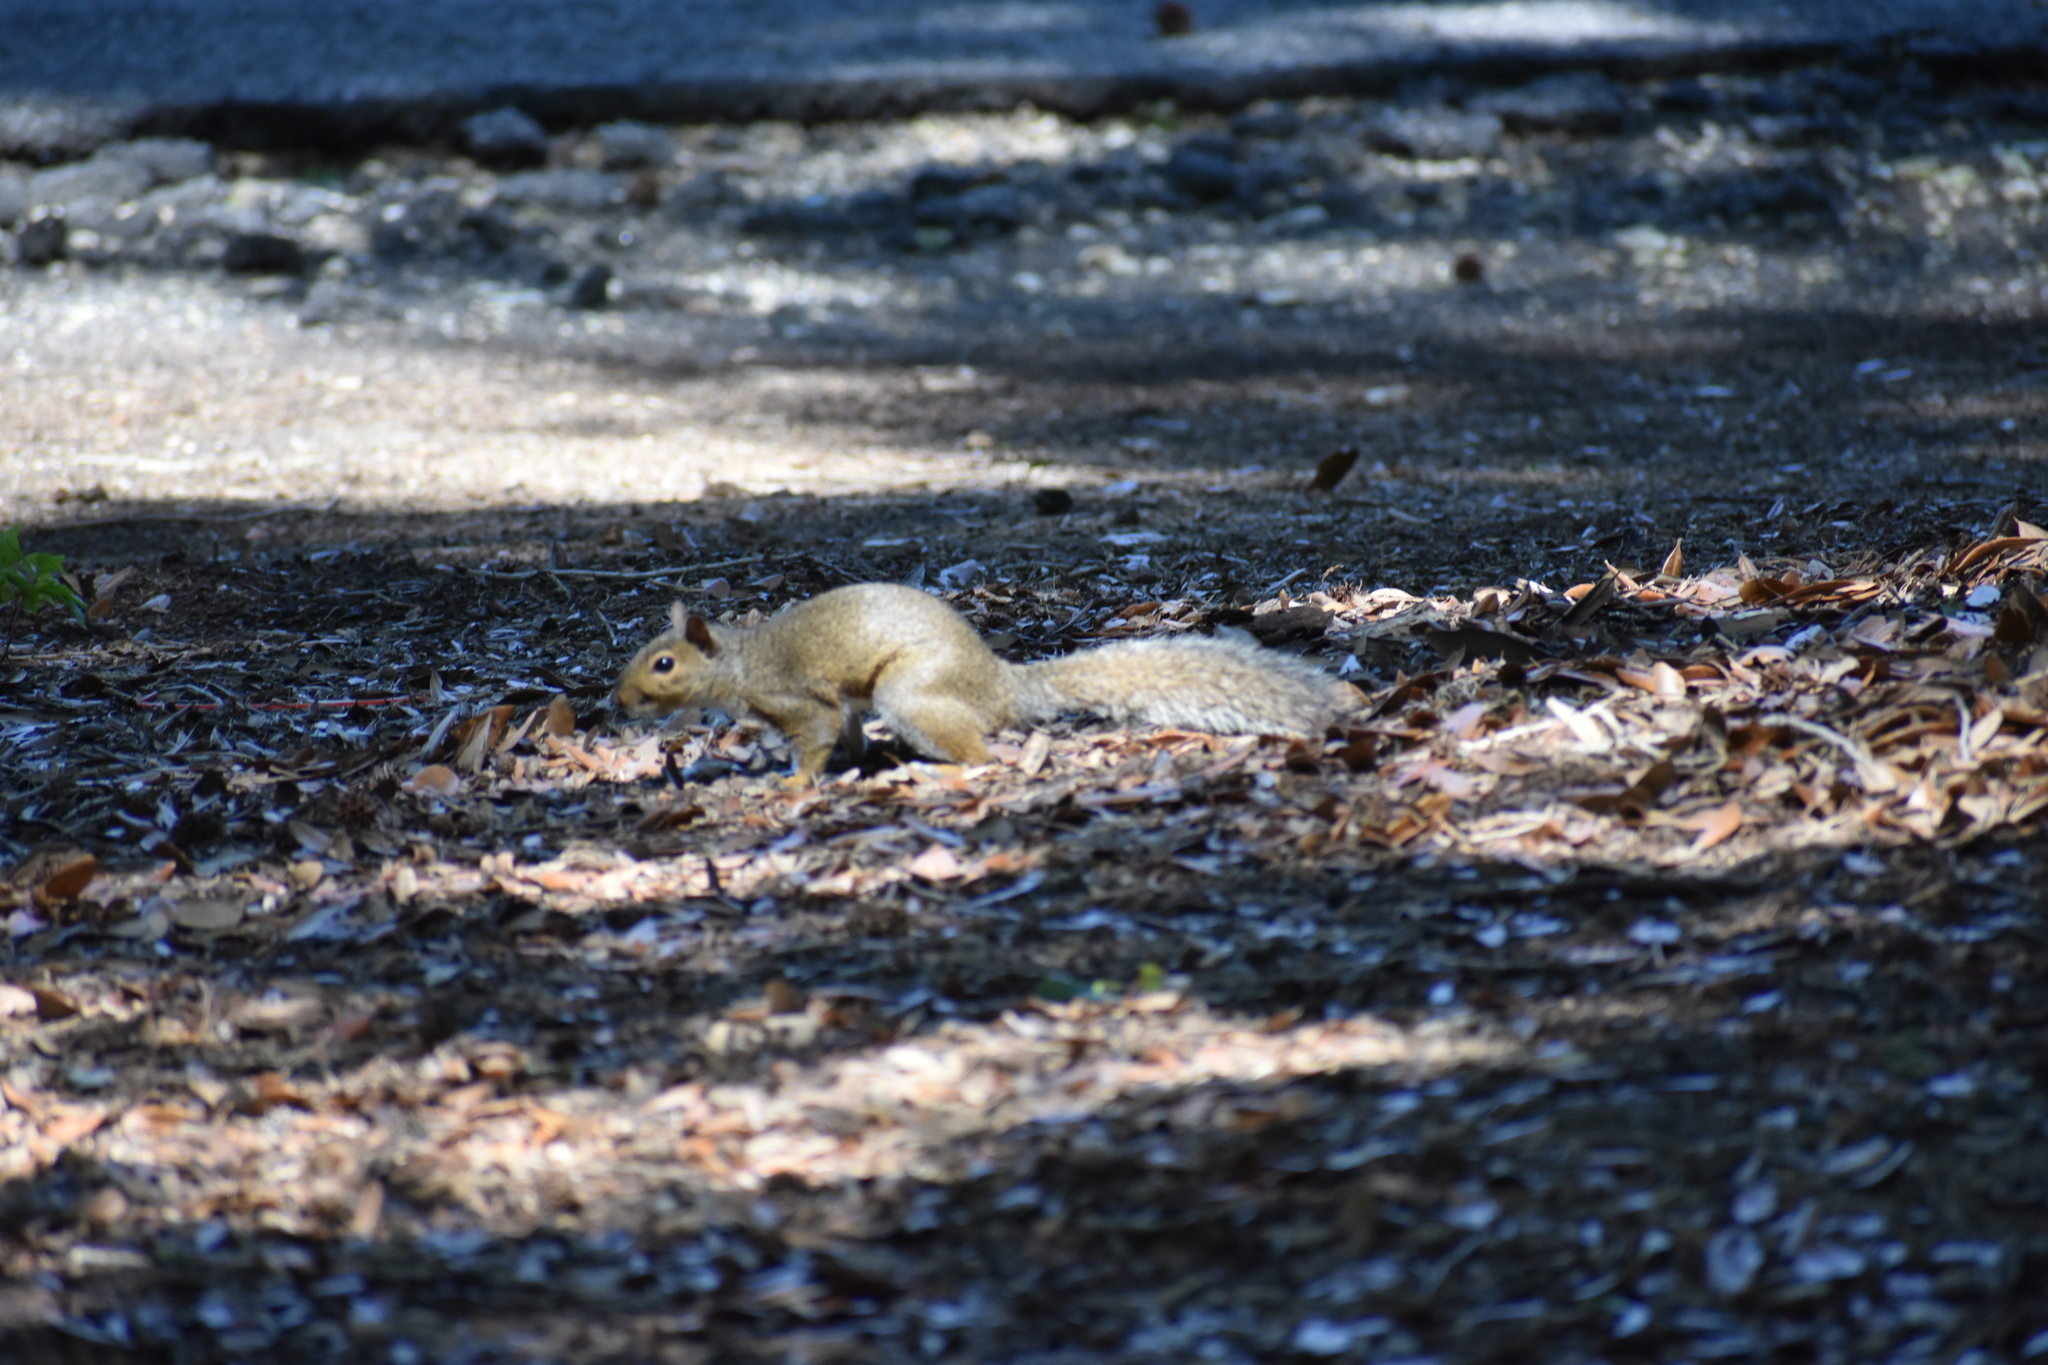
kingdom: Animalia
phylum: Chordata
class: Mammalia
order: Rodentia
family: Sciuridae
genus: Sciurus
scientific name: Sciurus carolinensis
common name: Eastern gray squirrel
